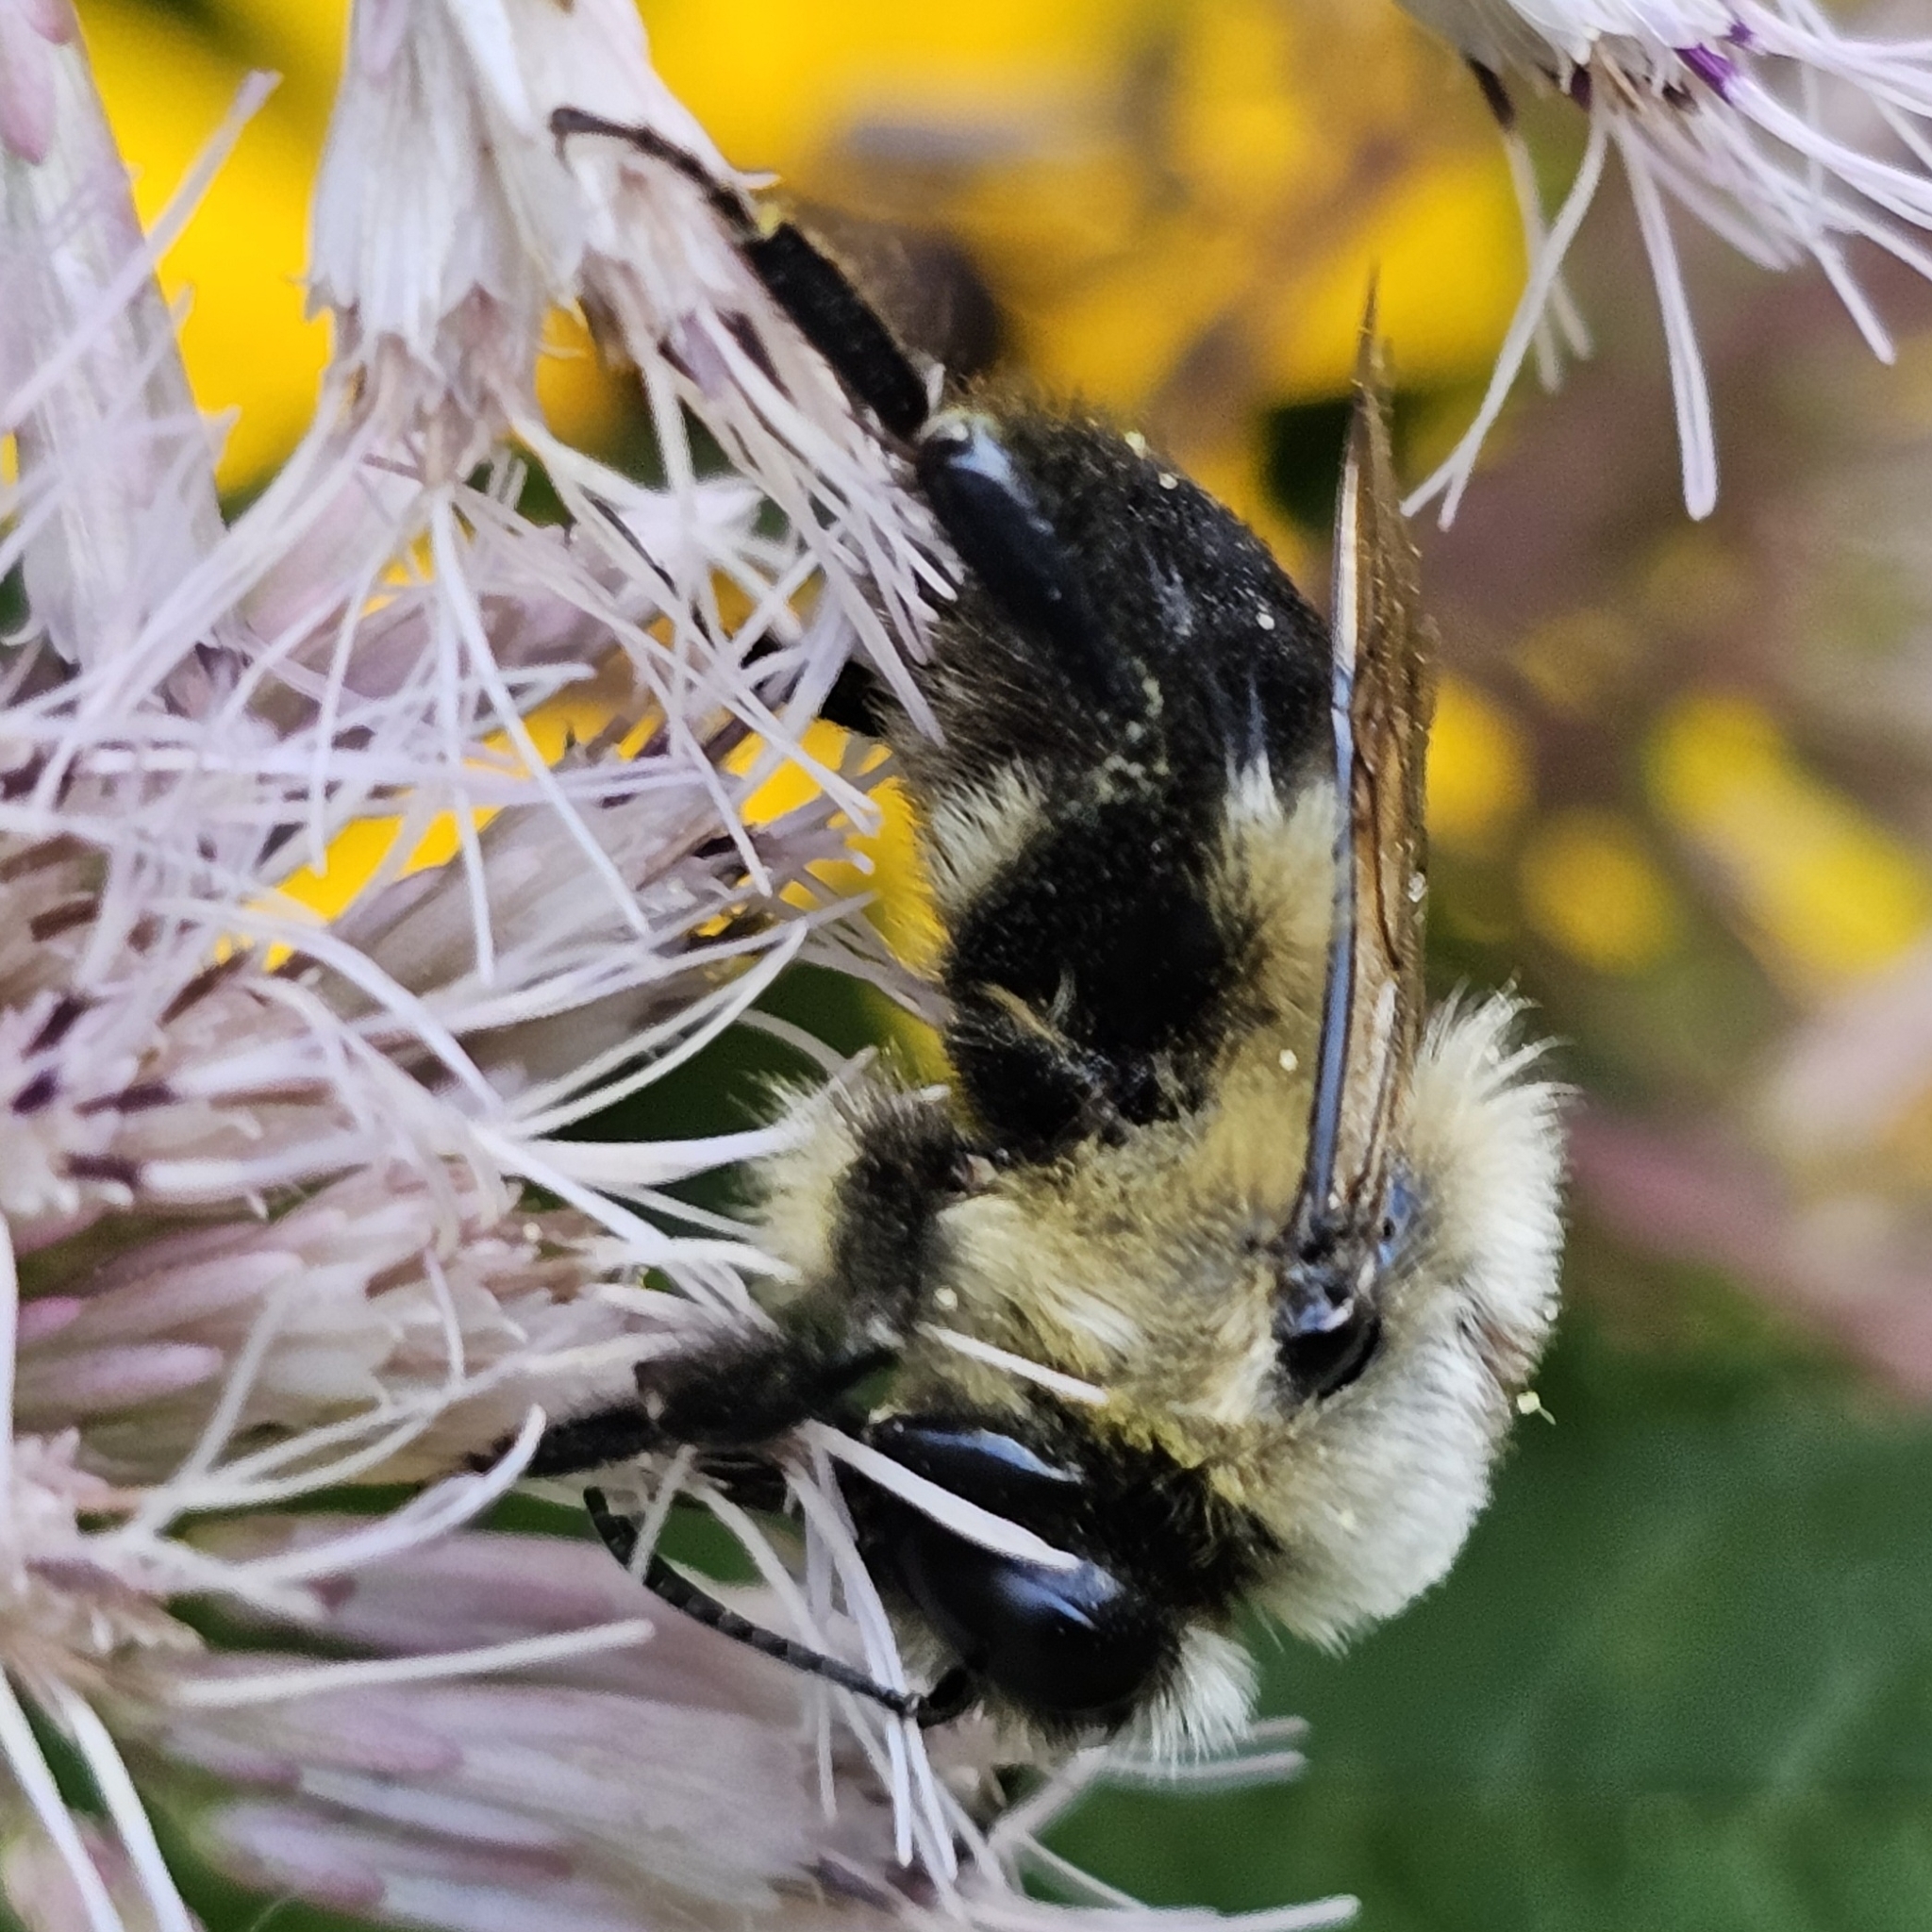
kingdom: Animalia
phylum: Arthropoda
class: Insecta
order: Hymenoptera
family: Apidae
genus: Bombus
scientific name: Bombus griseocollis
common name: Brown-belted bumble bee
